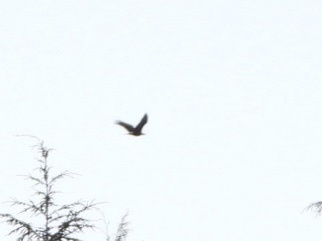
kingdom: Animalia
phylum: Chordata
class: Aves
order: Accipitriformes
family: Accipitridae
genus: Haliaeetus
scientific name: Haliaeetus leucocephalus
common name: Bald eagle
